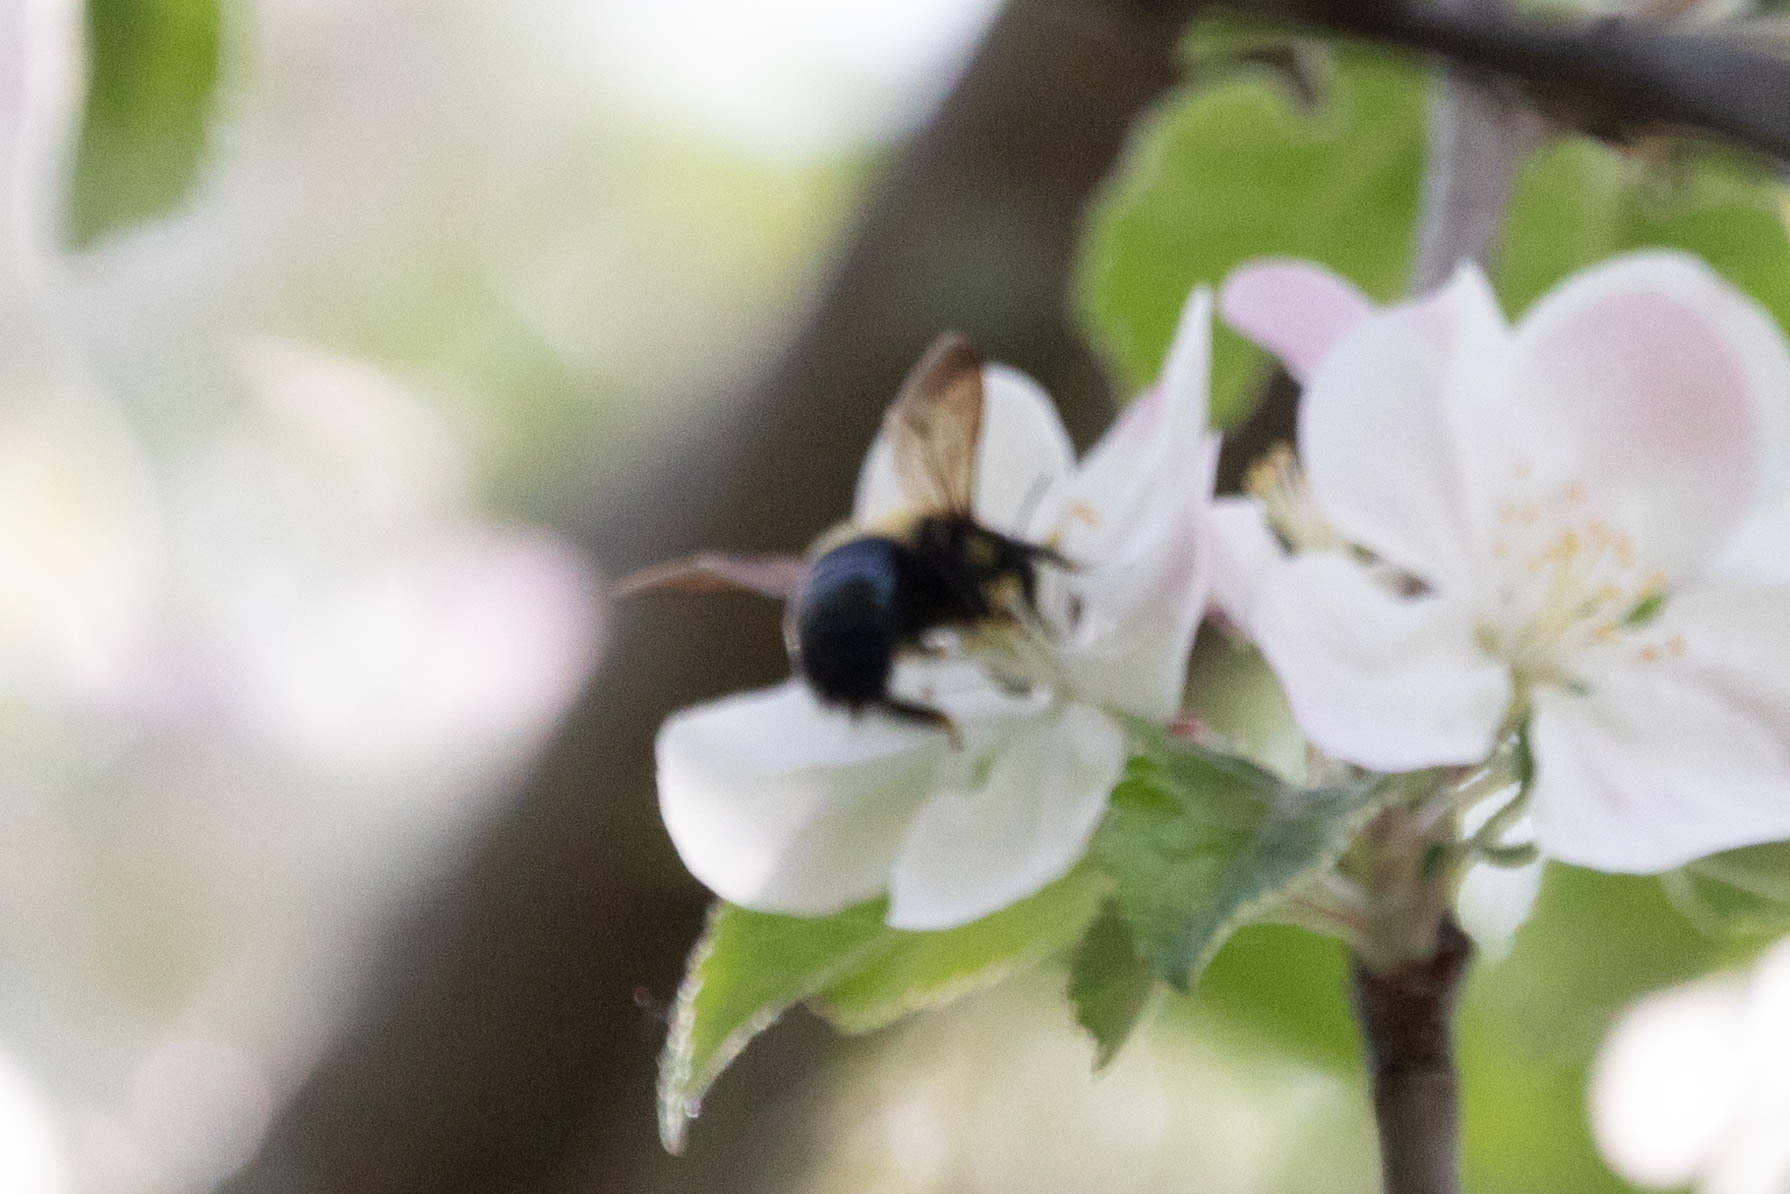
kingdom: Animalia
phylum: Arthropoda
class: Insecta
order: Hymenoptera
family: Apidae
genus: Xylocopa
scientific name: Xylocopa virginica
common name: Carpenter bee
